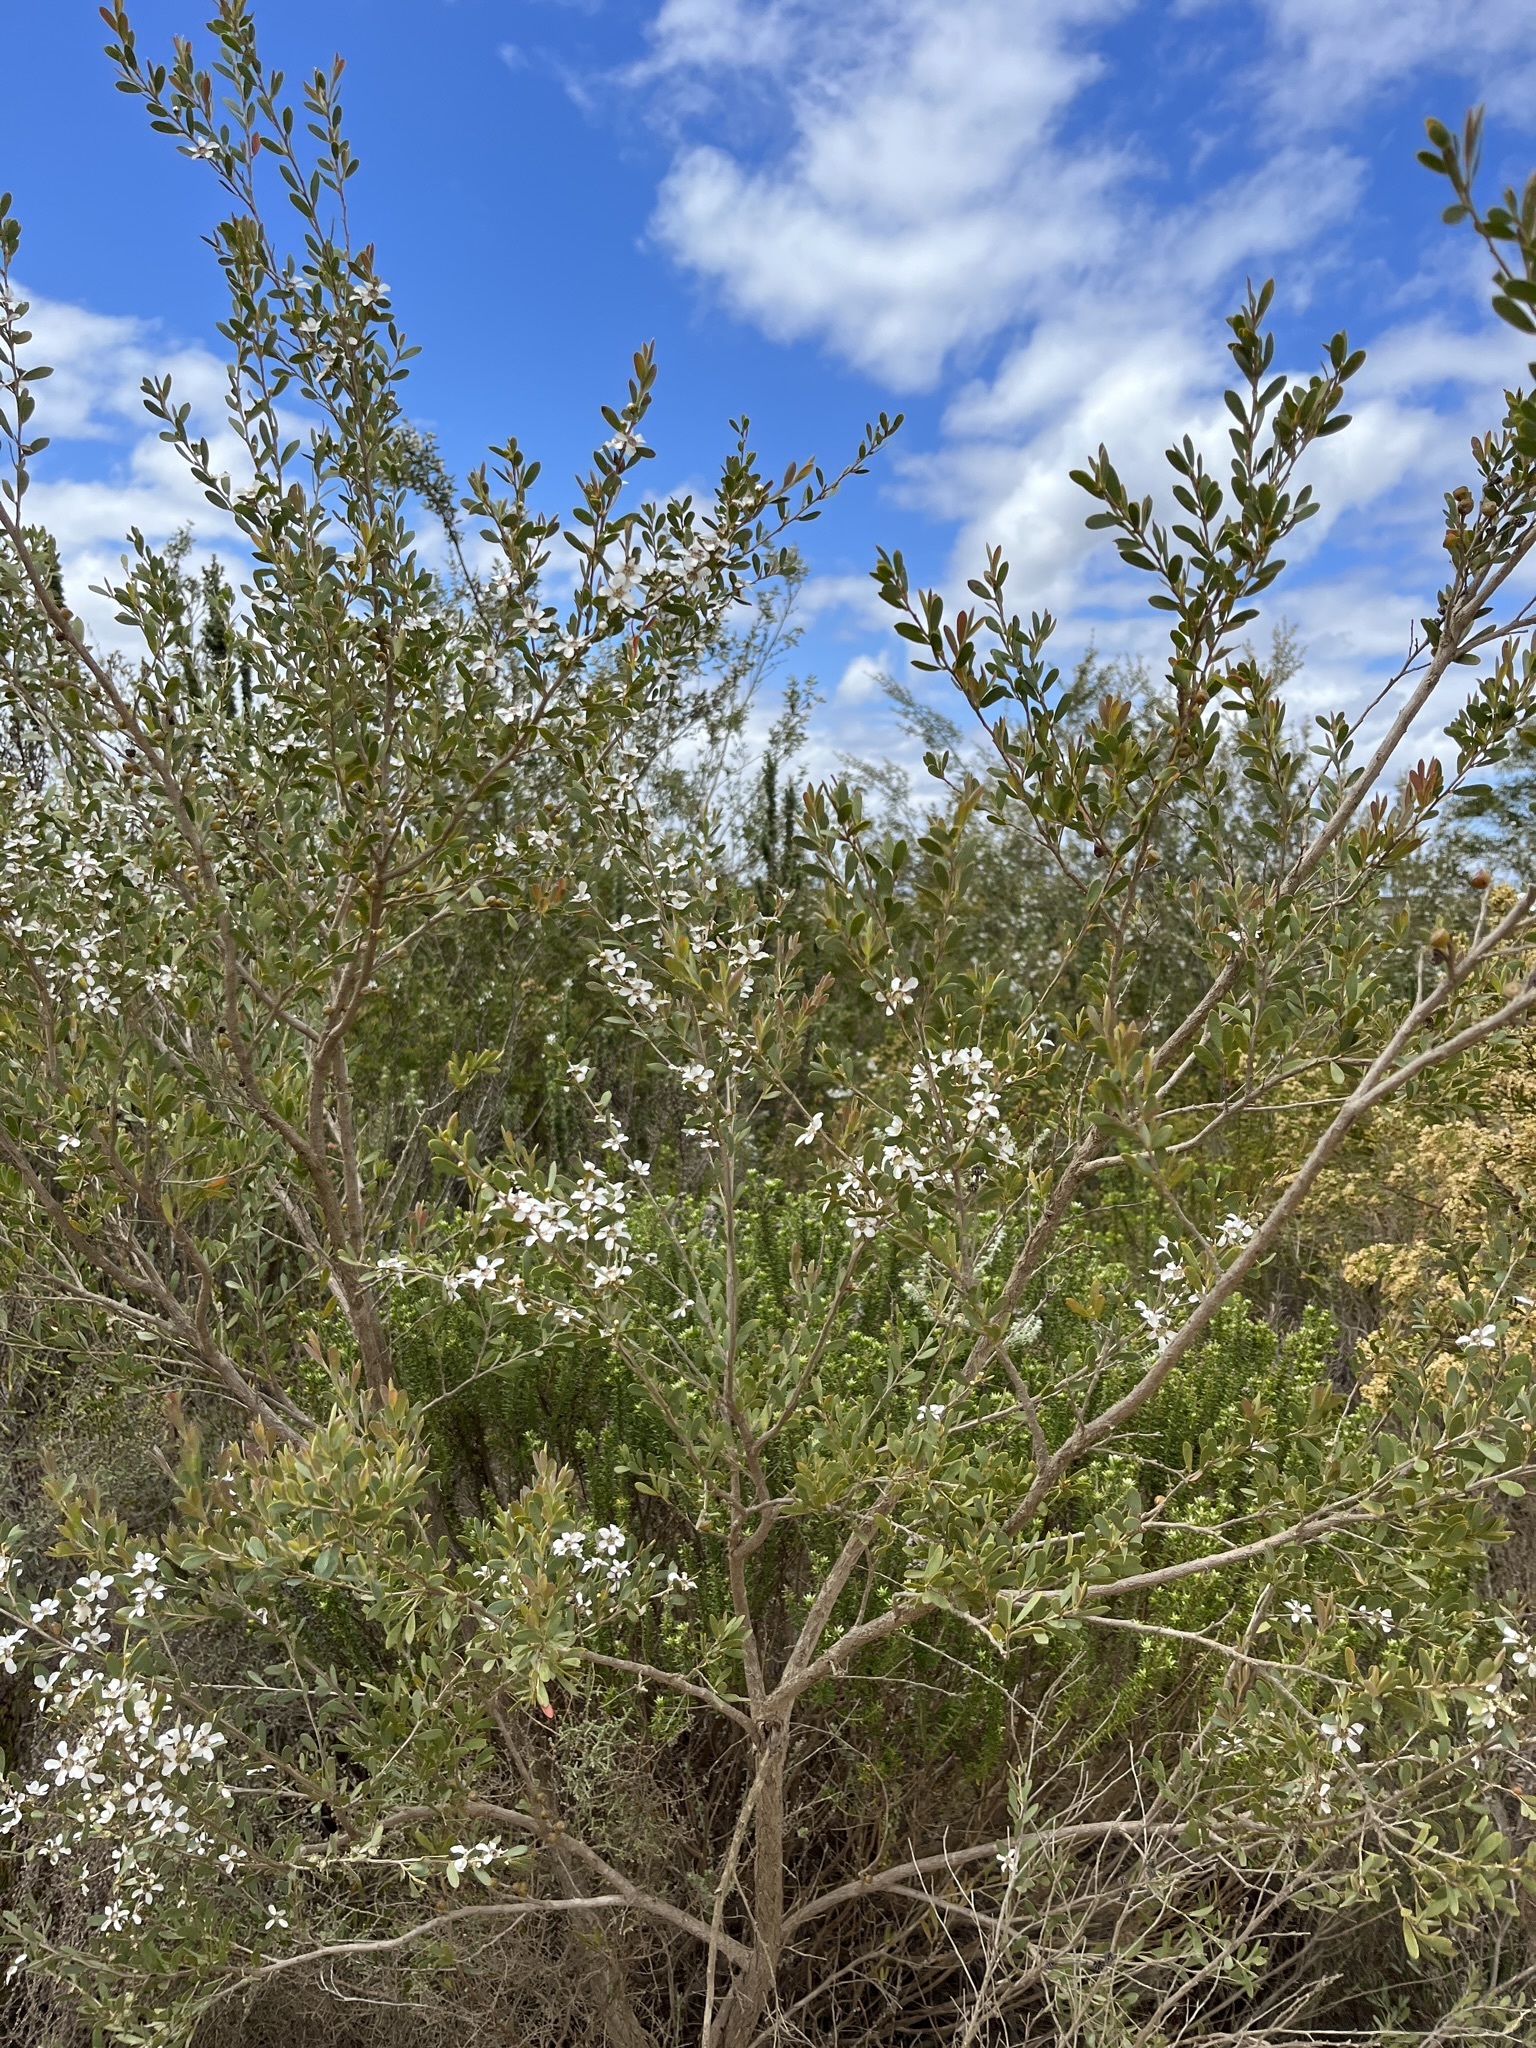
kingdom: Plantae
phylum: Tracheophyta
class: Magnoliopsida
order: Myrtales
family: Myrtaceae
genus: Leptospermum
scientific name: Leptospermum laevigatum
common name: Australian teatree
